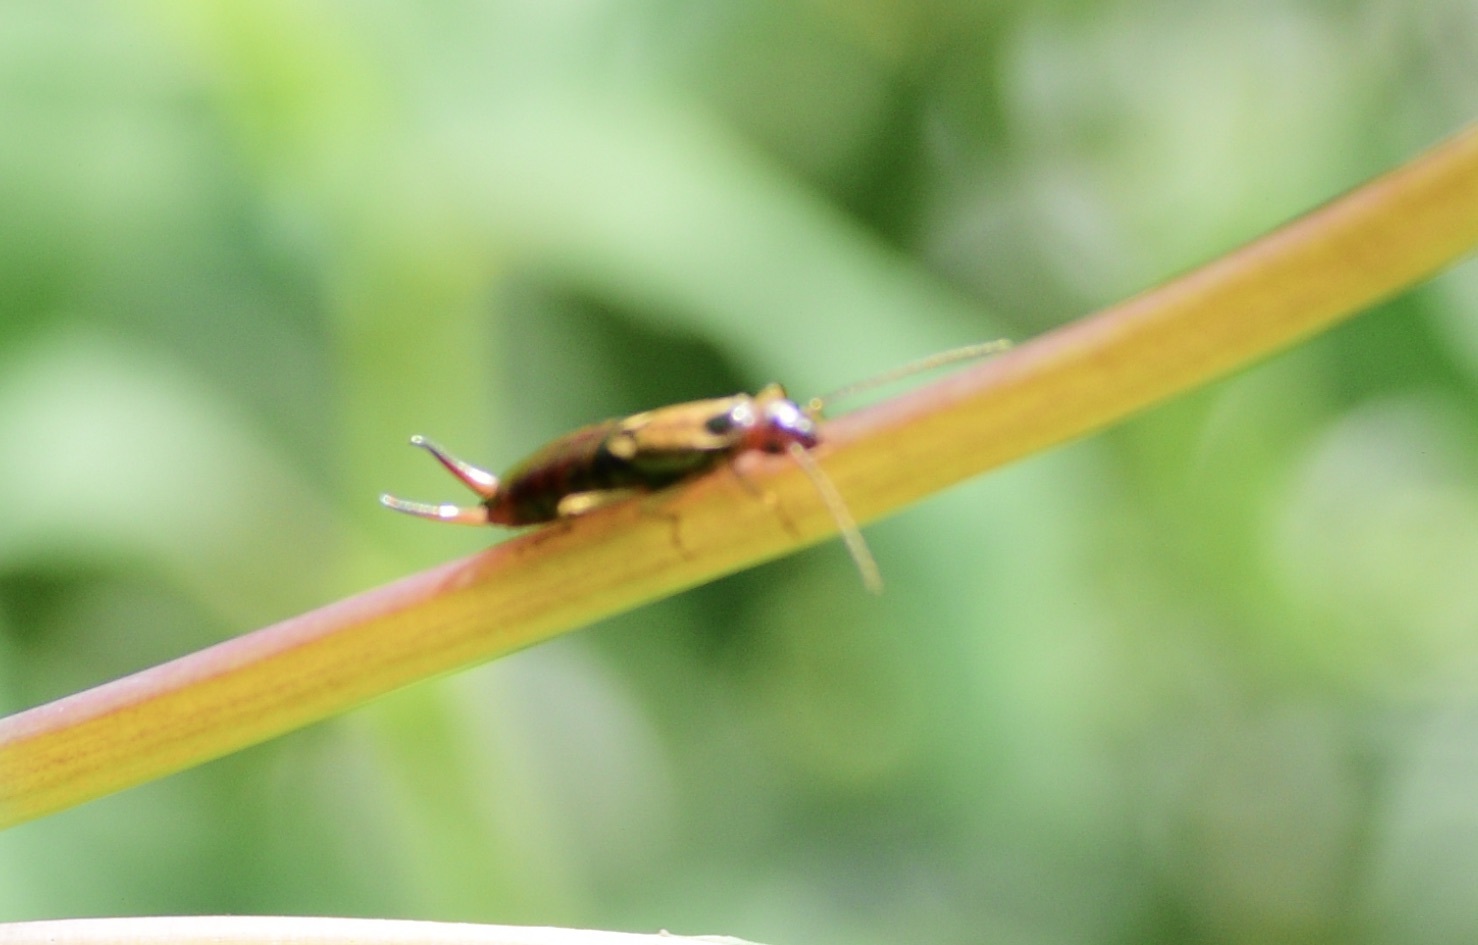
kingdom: Animalia
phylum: Arthropoda
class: Insecta
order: Dermaptera
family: Forficulidae
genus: Forficula
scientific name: Forficula
